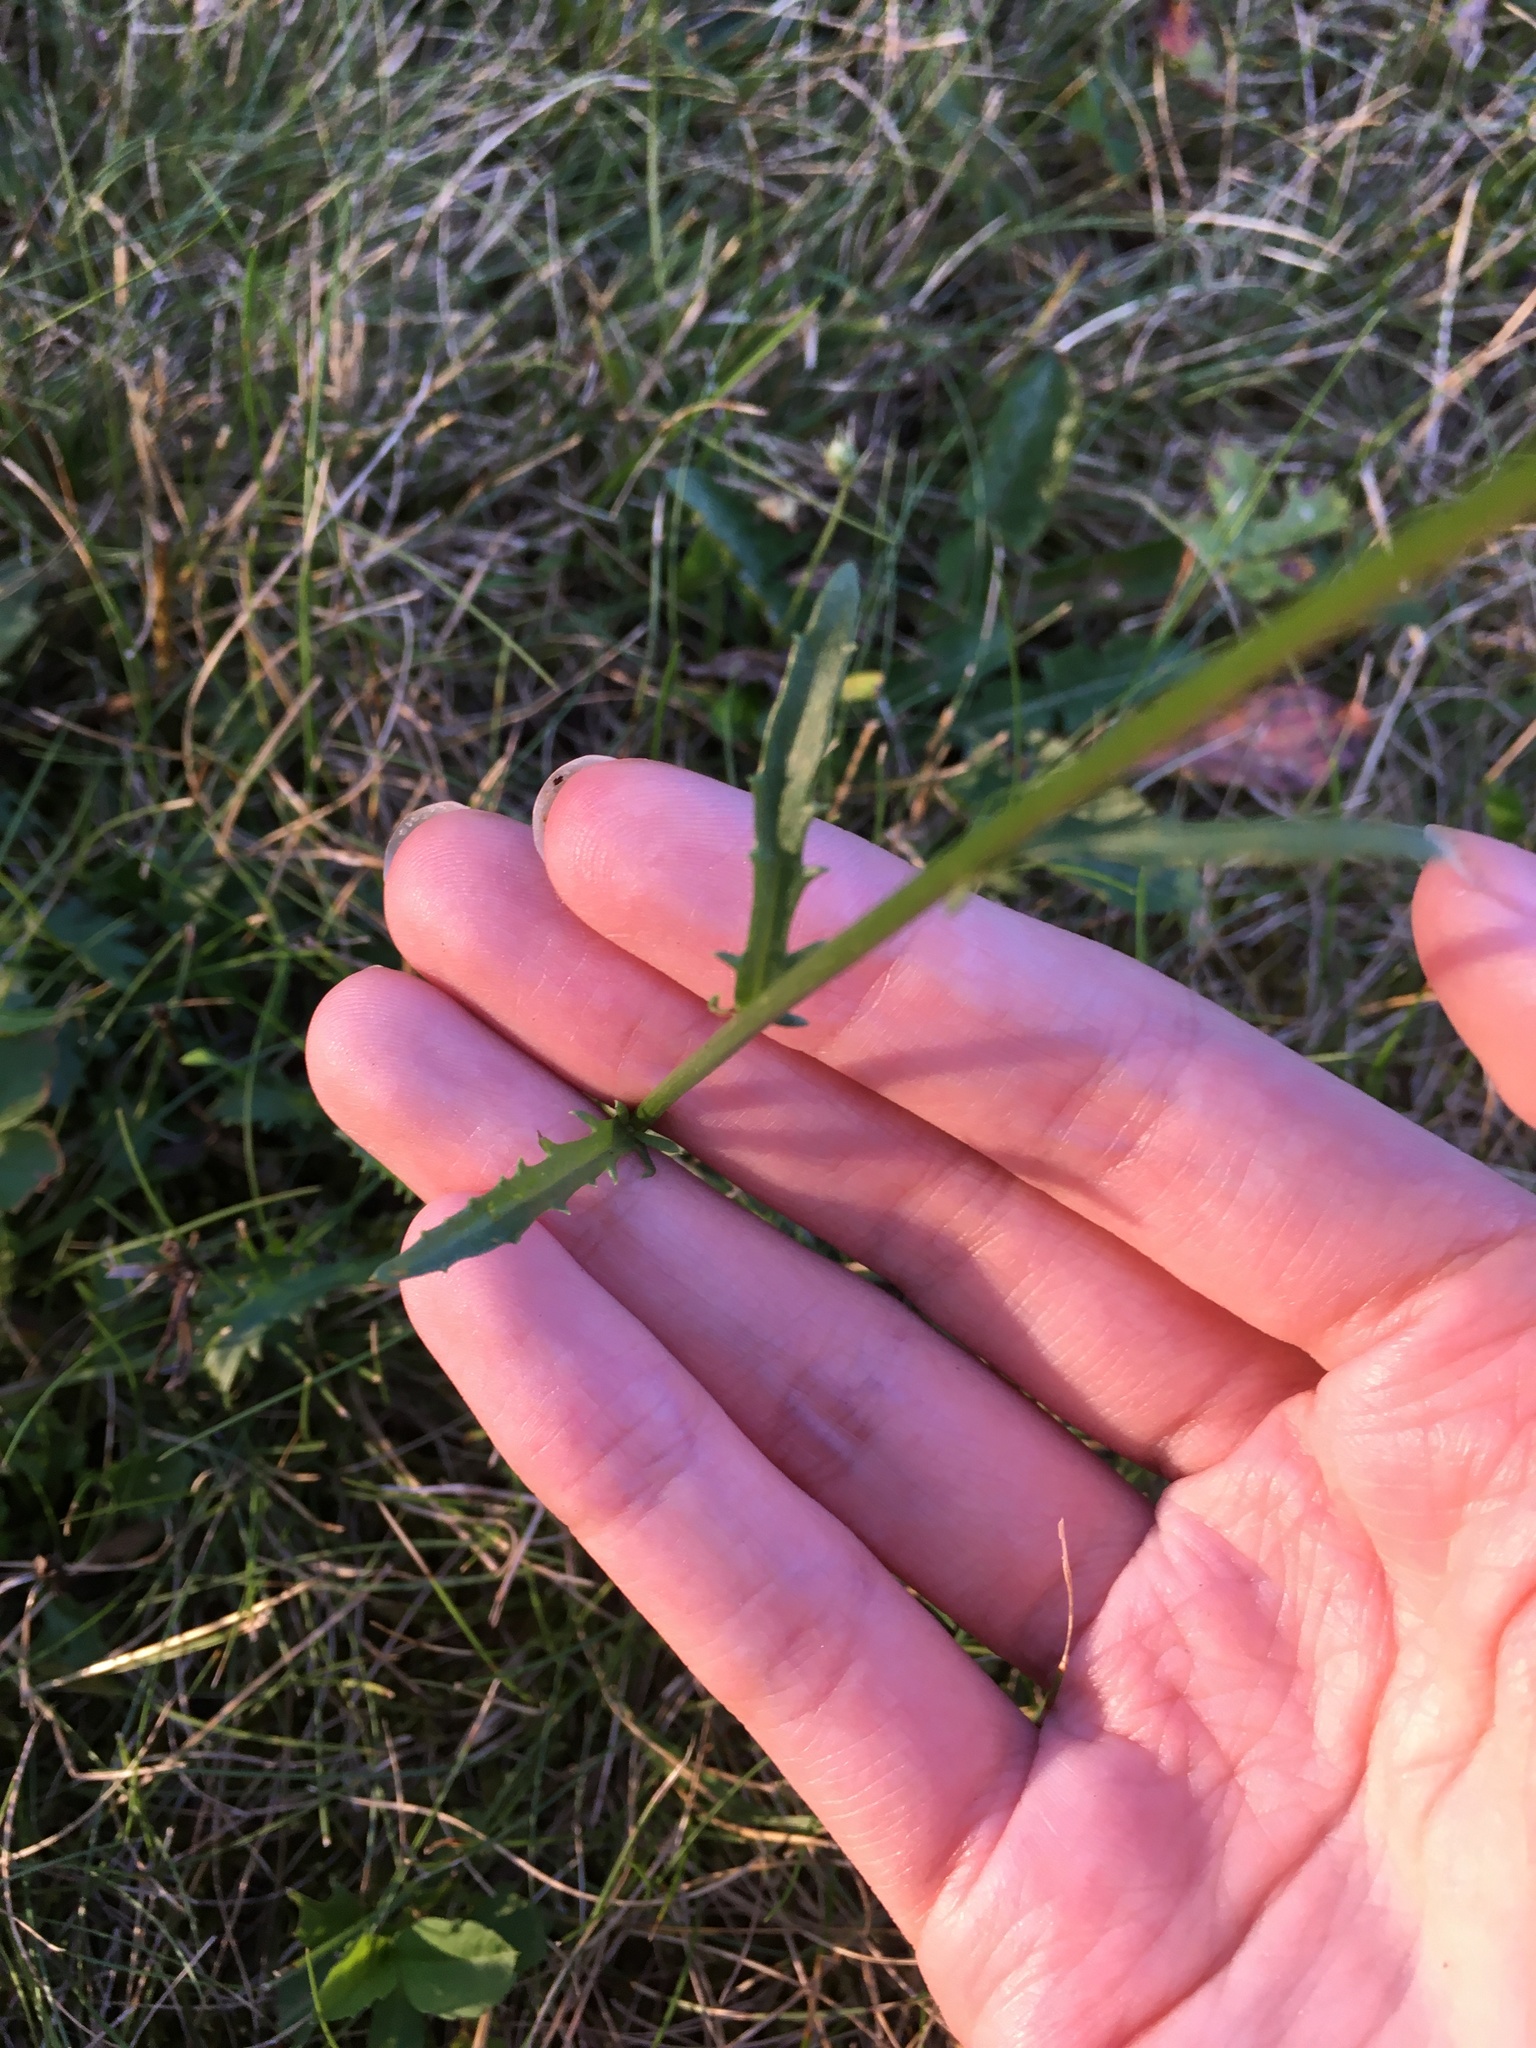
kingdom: Plantae
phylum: Tracheophyta
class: Magnoliopsida
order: Asterales
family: Asteraceae
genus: Leucanthemum
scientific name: Leucanthemum vulgare
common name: Oxeye daisy
